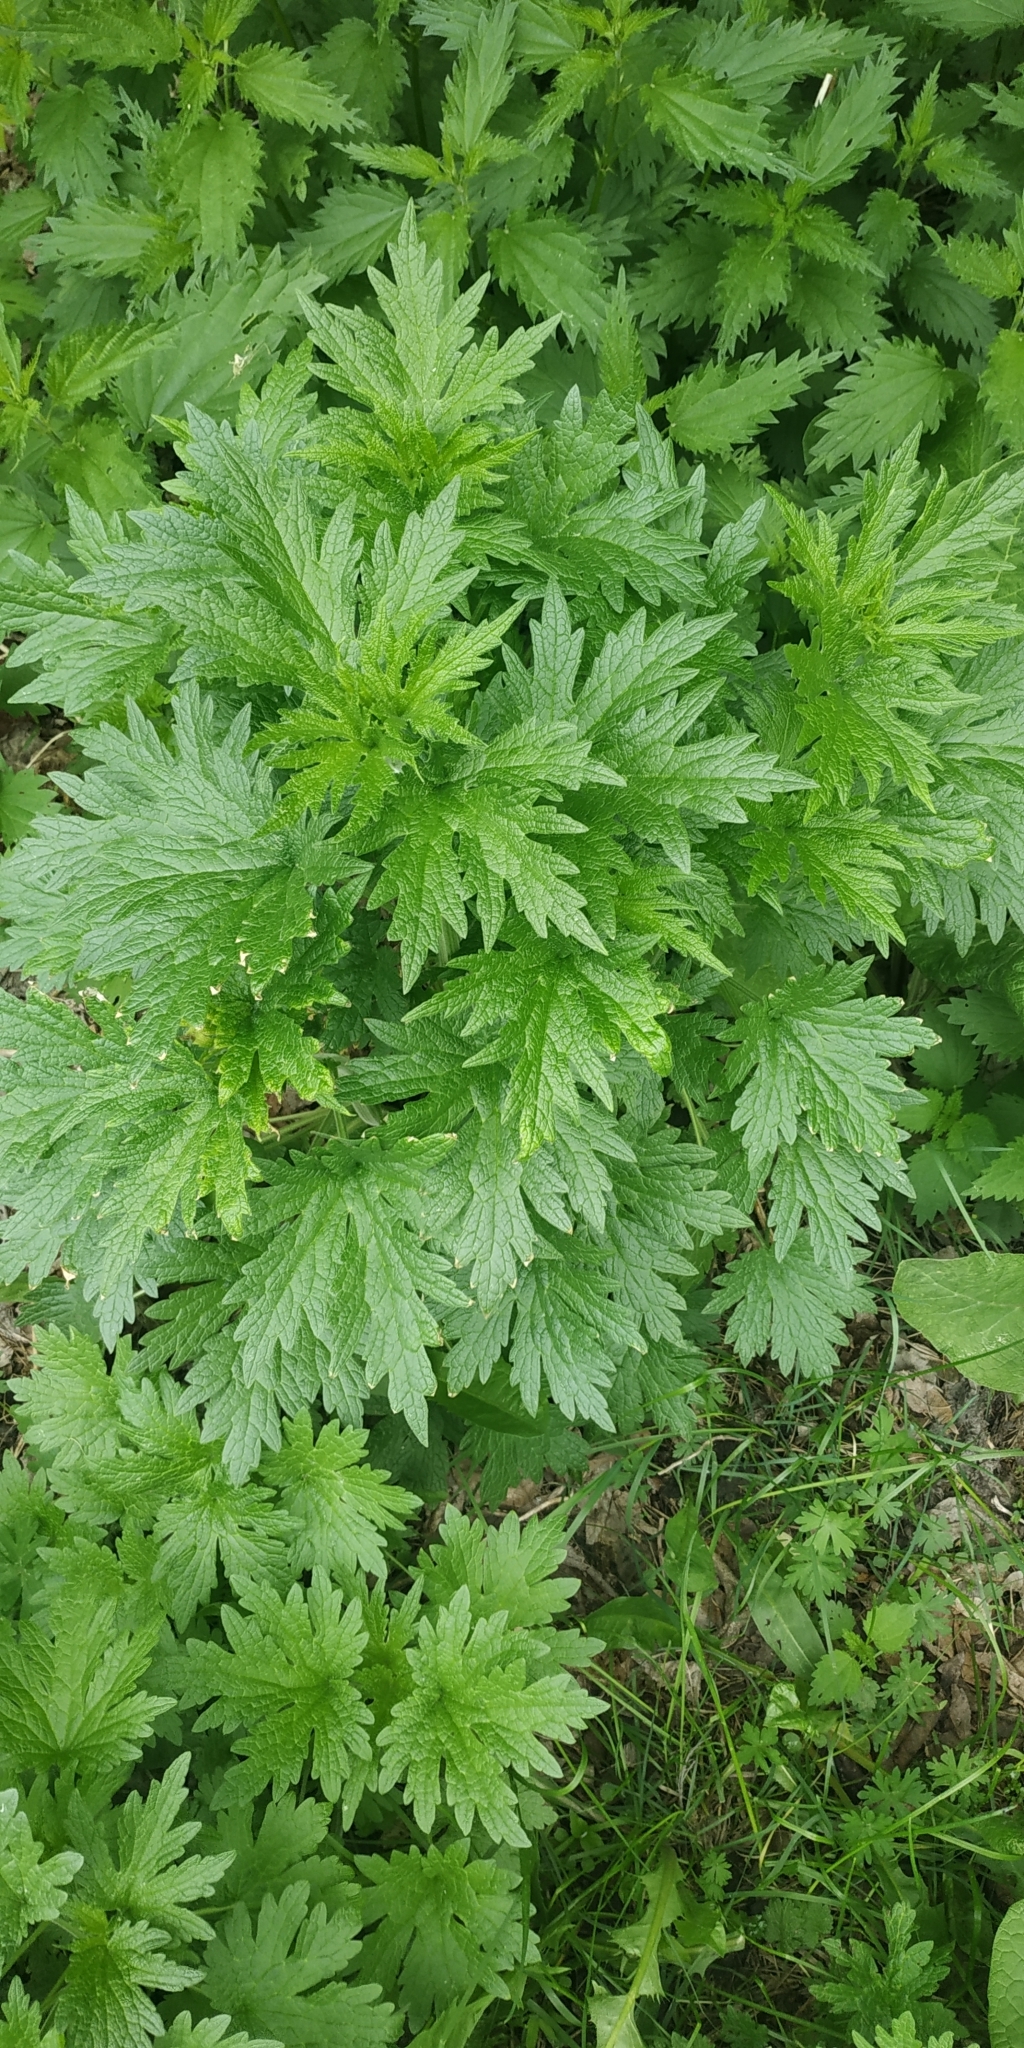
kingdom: Plantae
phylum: Tracheophyta
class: Magnoliopsida
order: Lamiales
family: Lamiaceae
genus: Leonurus
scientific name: Leonurus quinquelobatus
